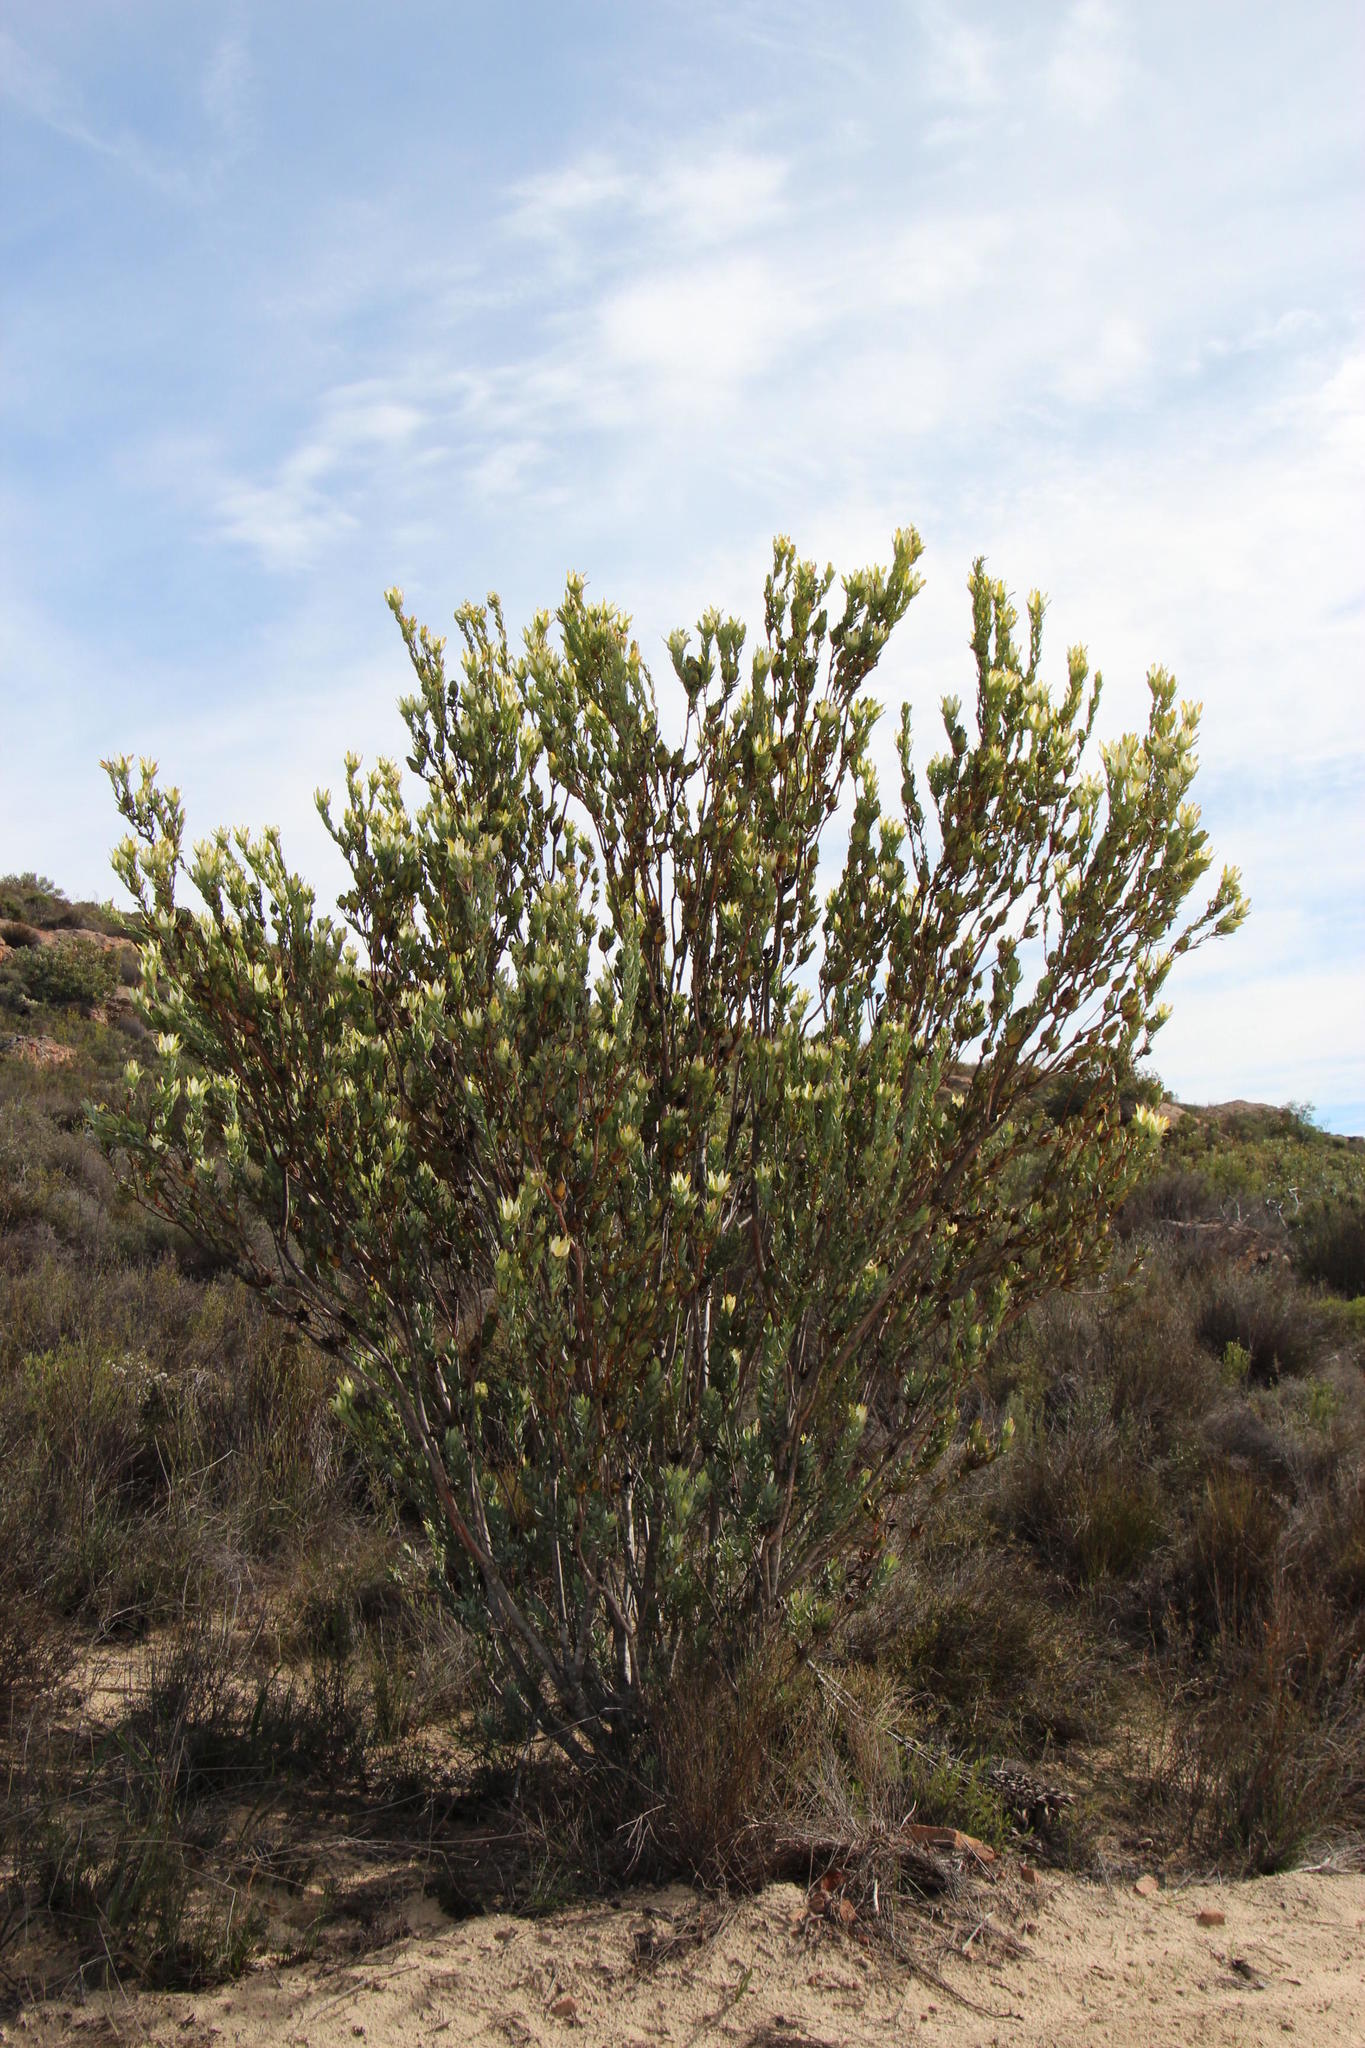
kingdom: Plantae
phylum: Tracheophyta
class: Magnoliopsida
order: Proteales
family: Proteaceae
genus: Leucadendron
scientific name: Leucadendron procerum
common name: Ivory conebush
